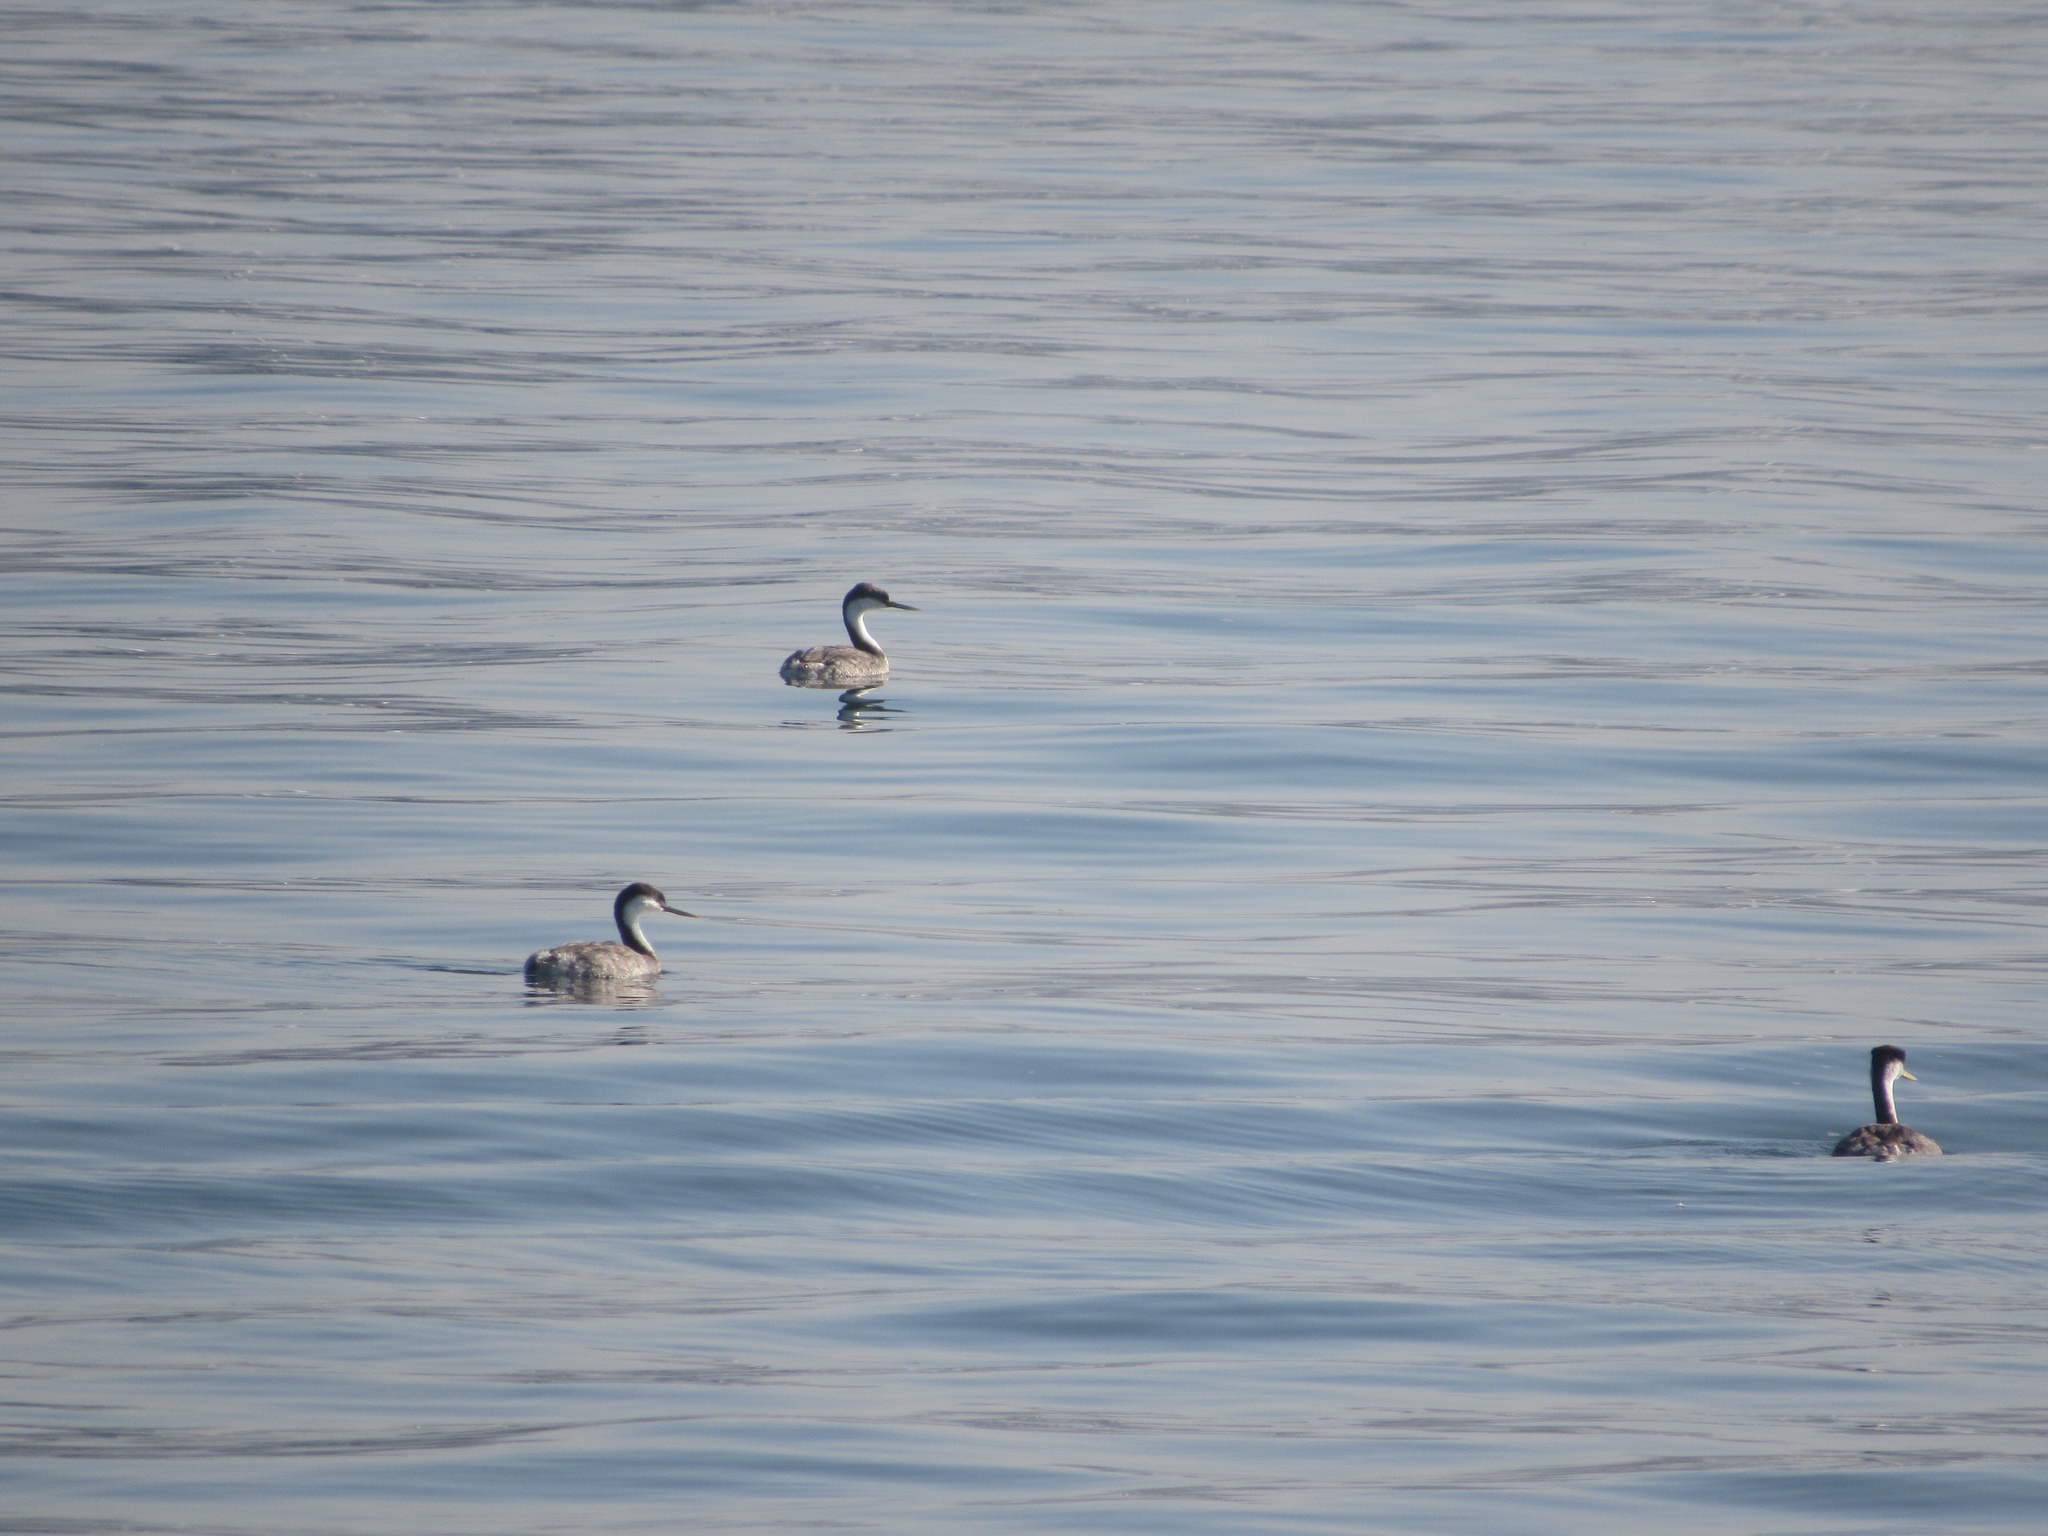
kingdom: Animalia
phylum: Chordata
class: Aves
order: Podicipediformes
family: Podicipedidae
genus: Aechmophorus
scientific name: Aechmophorus occidentalis
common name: Western grebe
